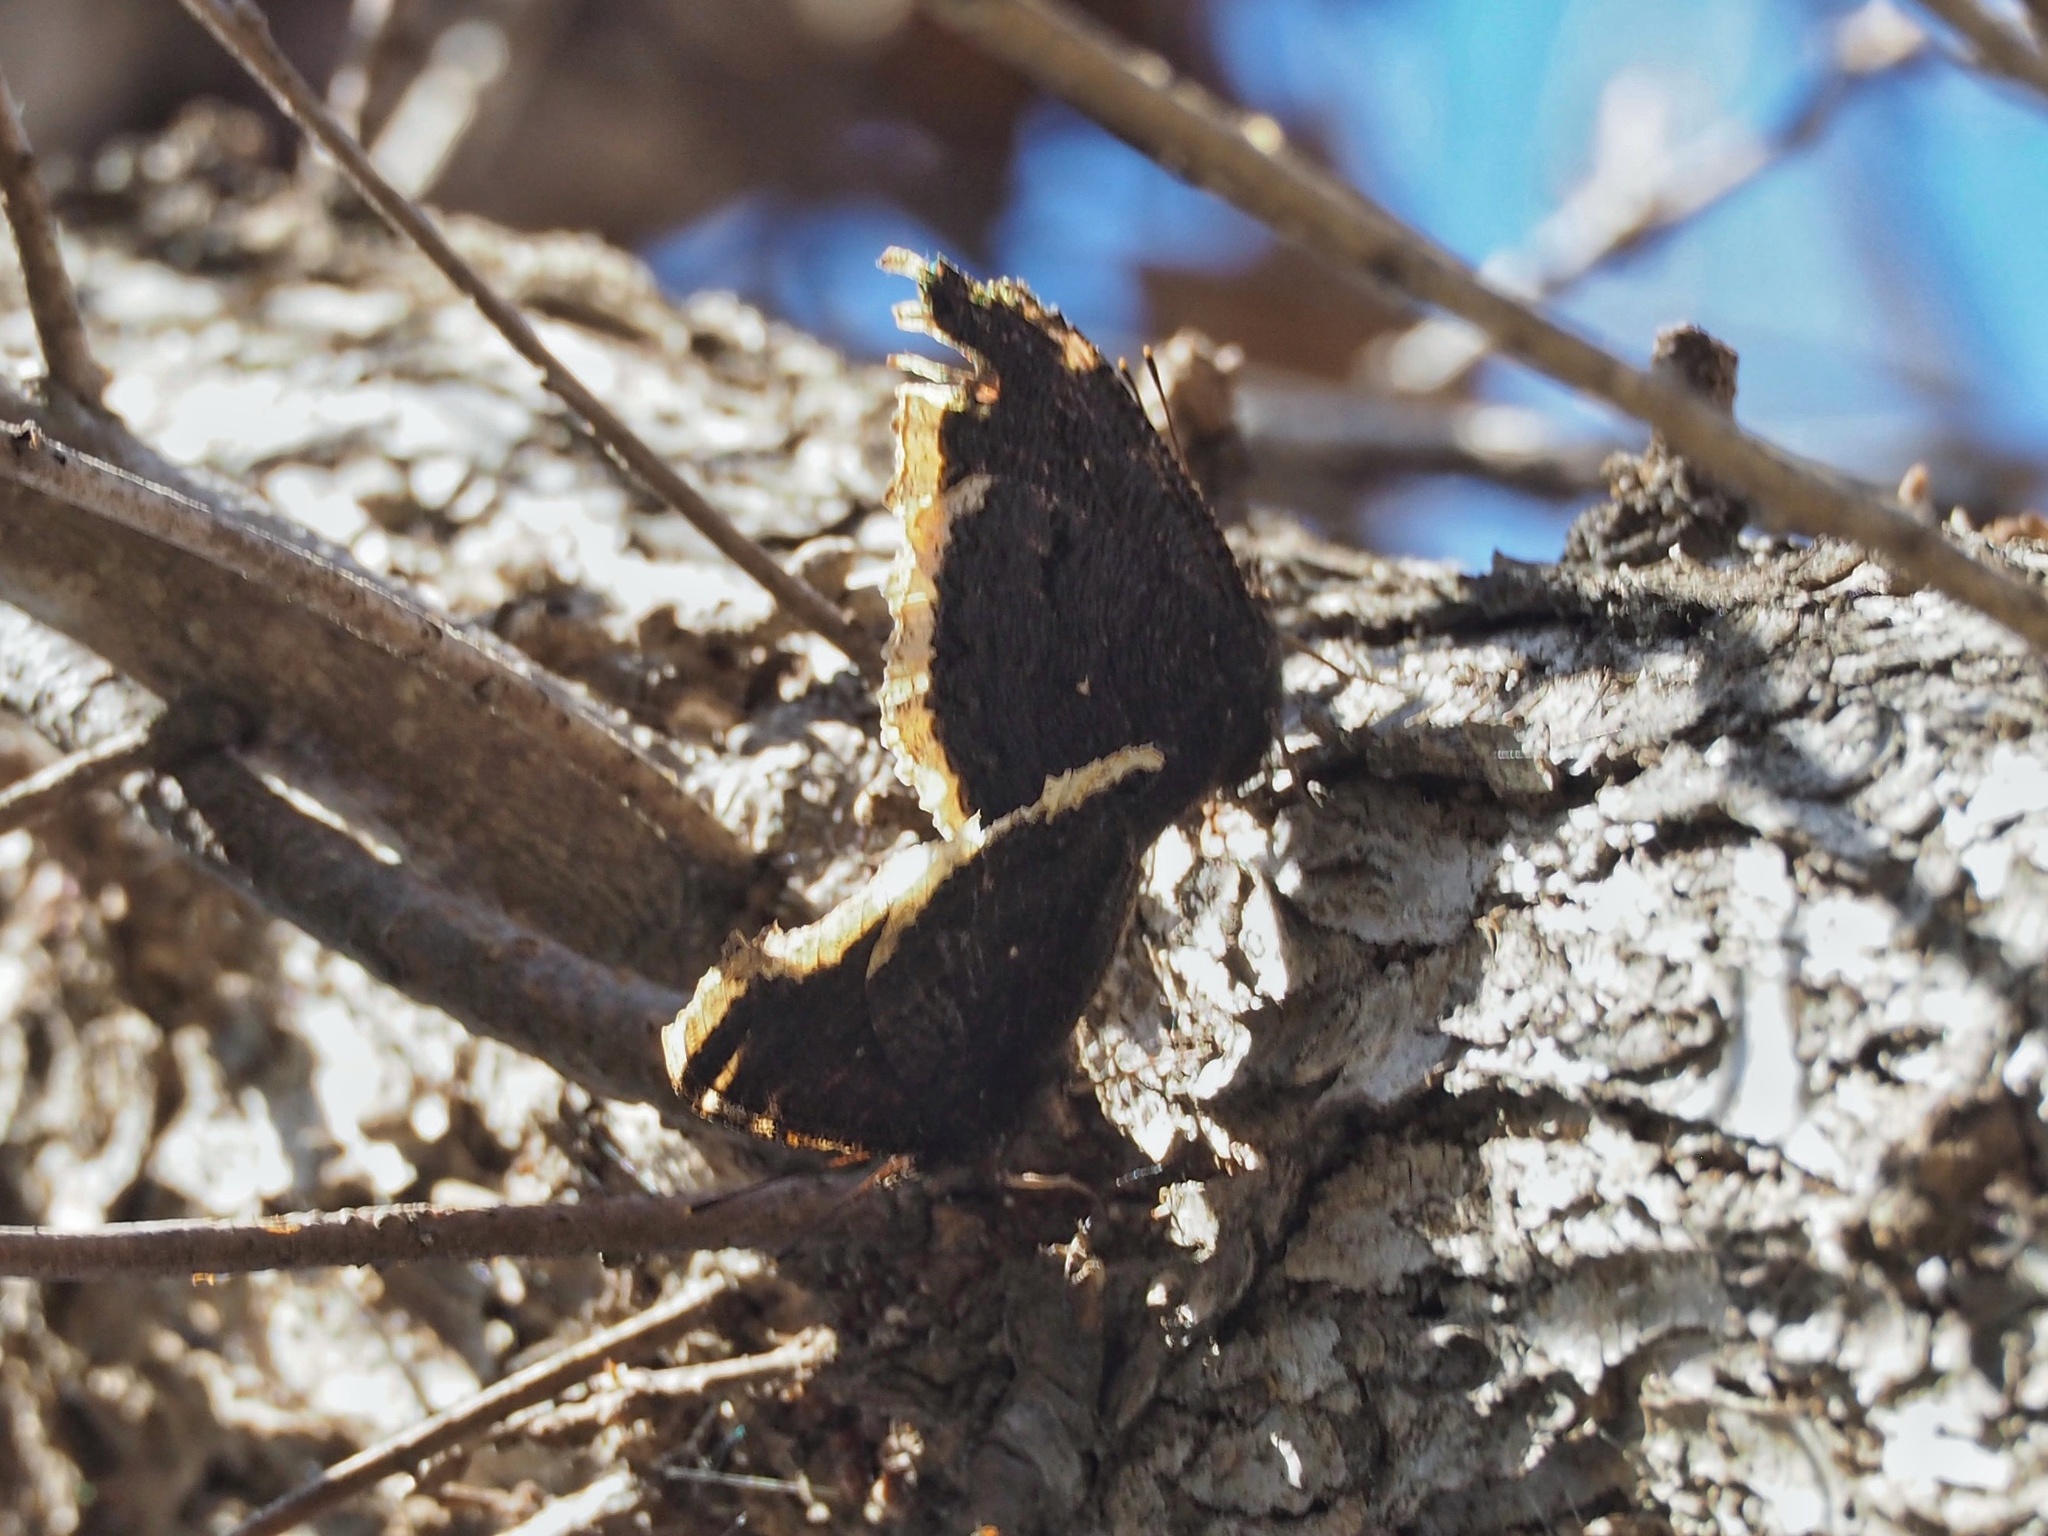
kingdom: Animalia
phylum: Arthropoda
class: Insecta
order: Lepidoptera
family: Nymphalidae
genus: Nymphalis
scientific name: Nymphalis antiopa
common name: Camberwell beauty
